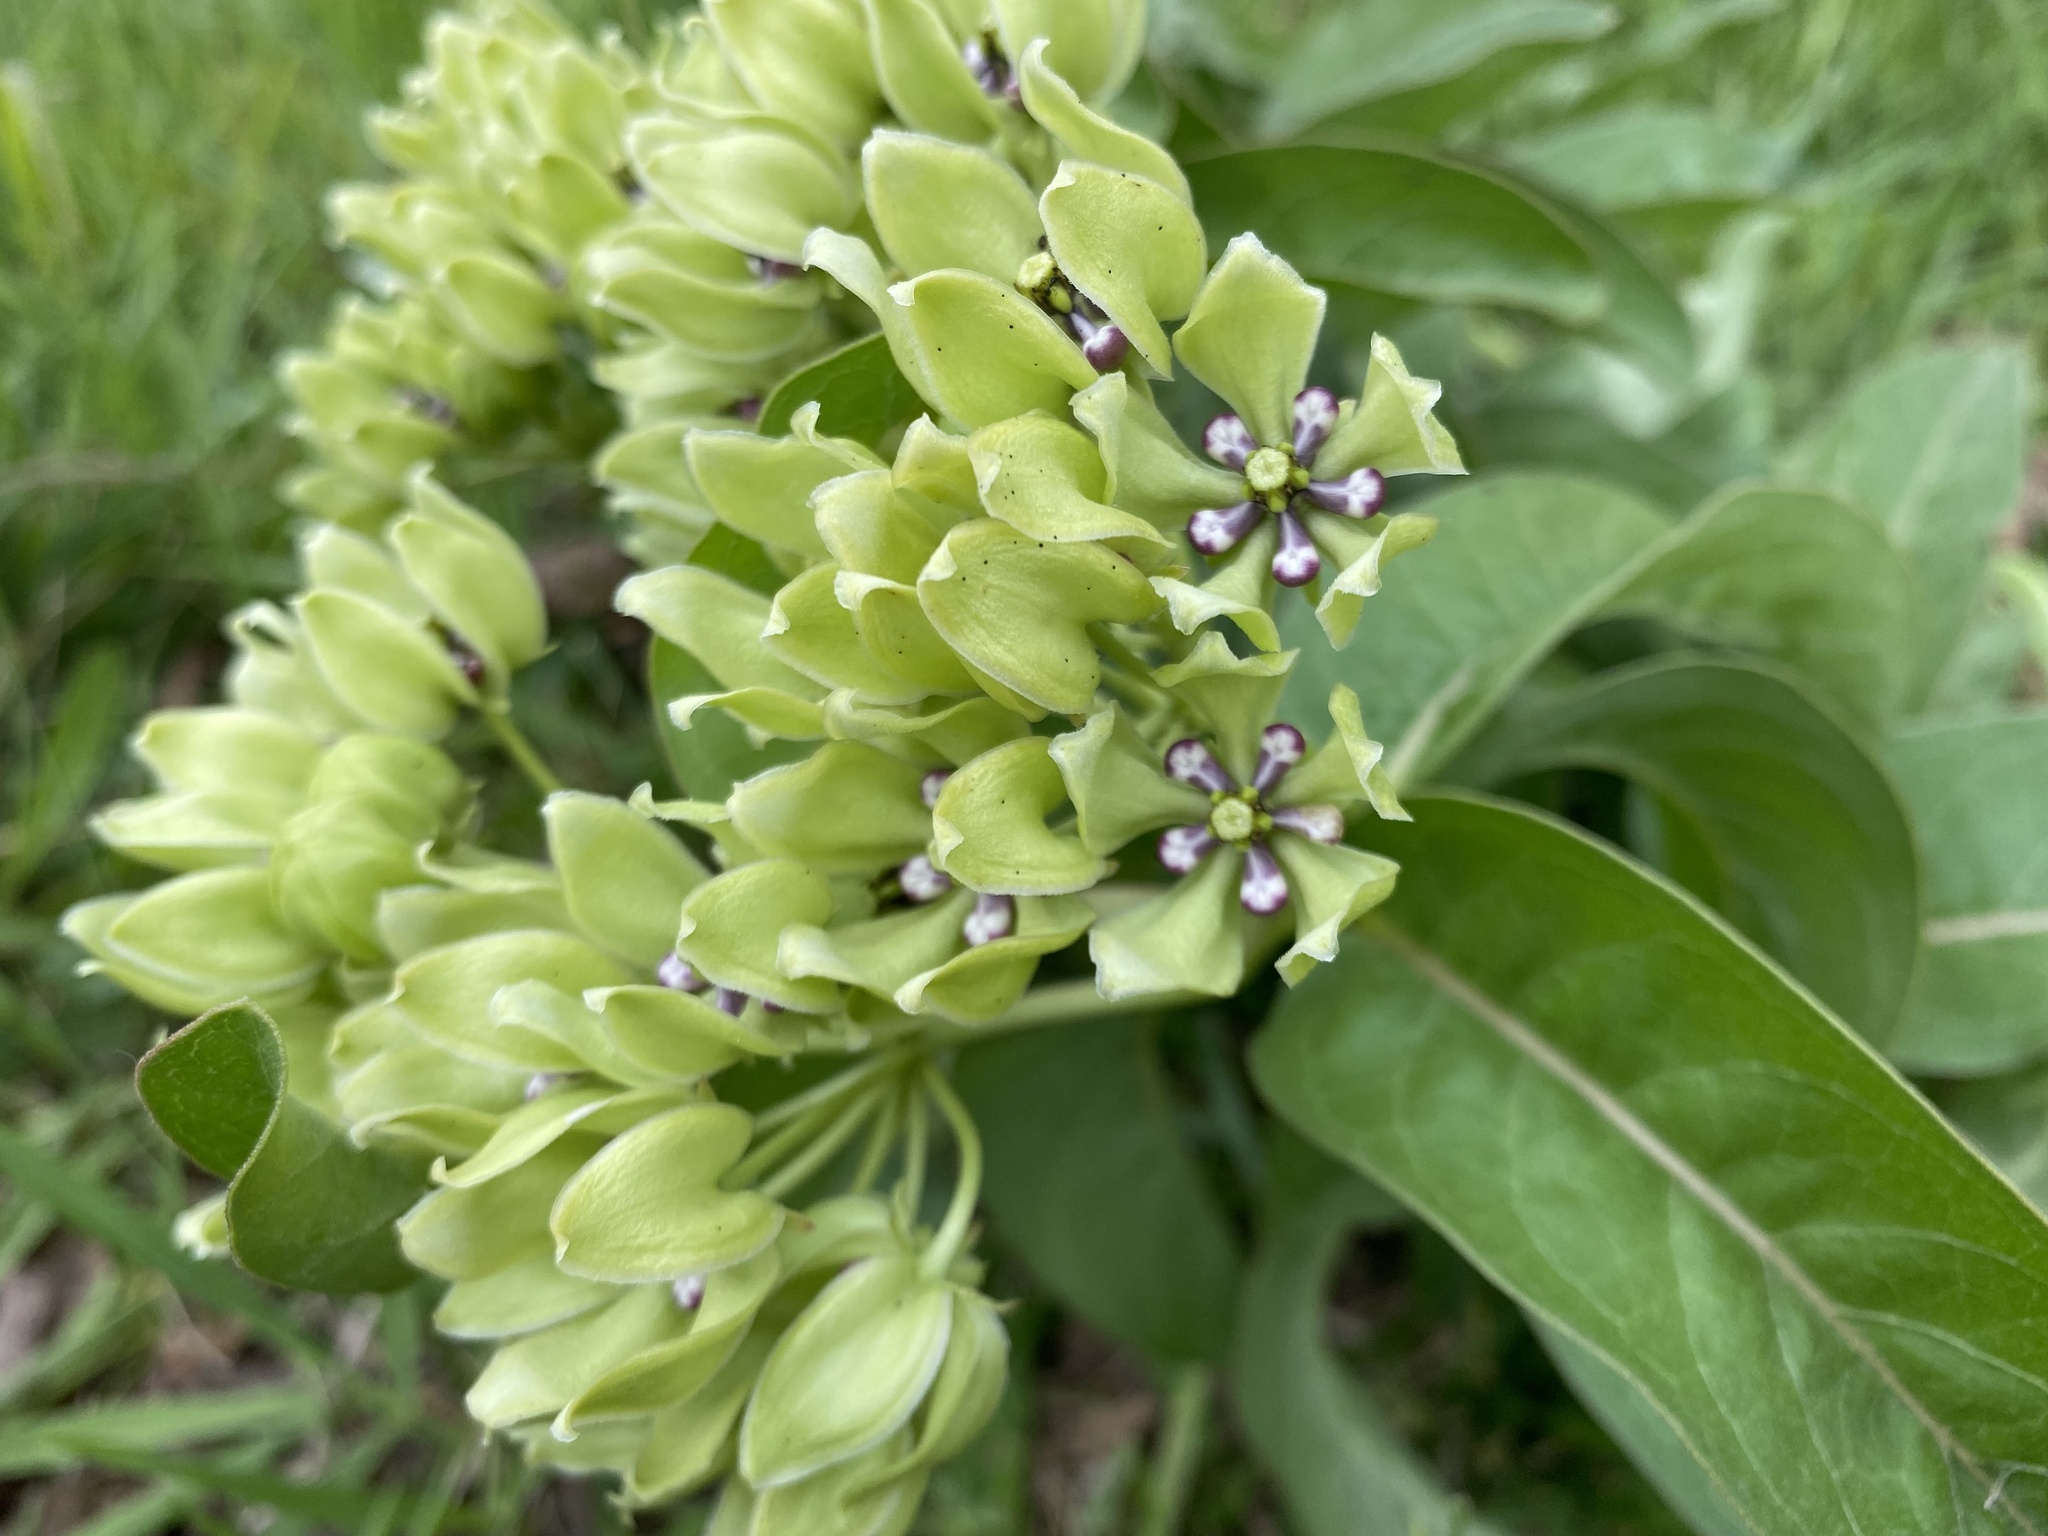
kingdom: Plantae
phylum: Tracheophyta
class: Magnoliopsida
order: Gentianales
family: Apocynaceae
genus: Asclepias
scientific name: Asclepias viridis
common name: Antelope-horns
